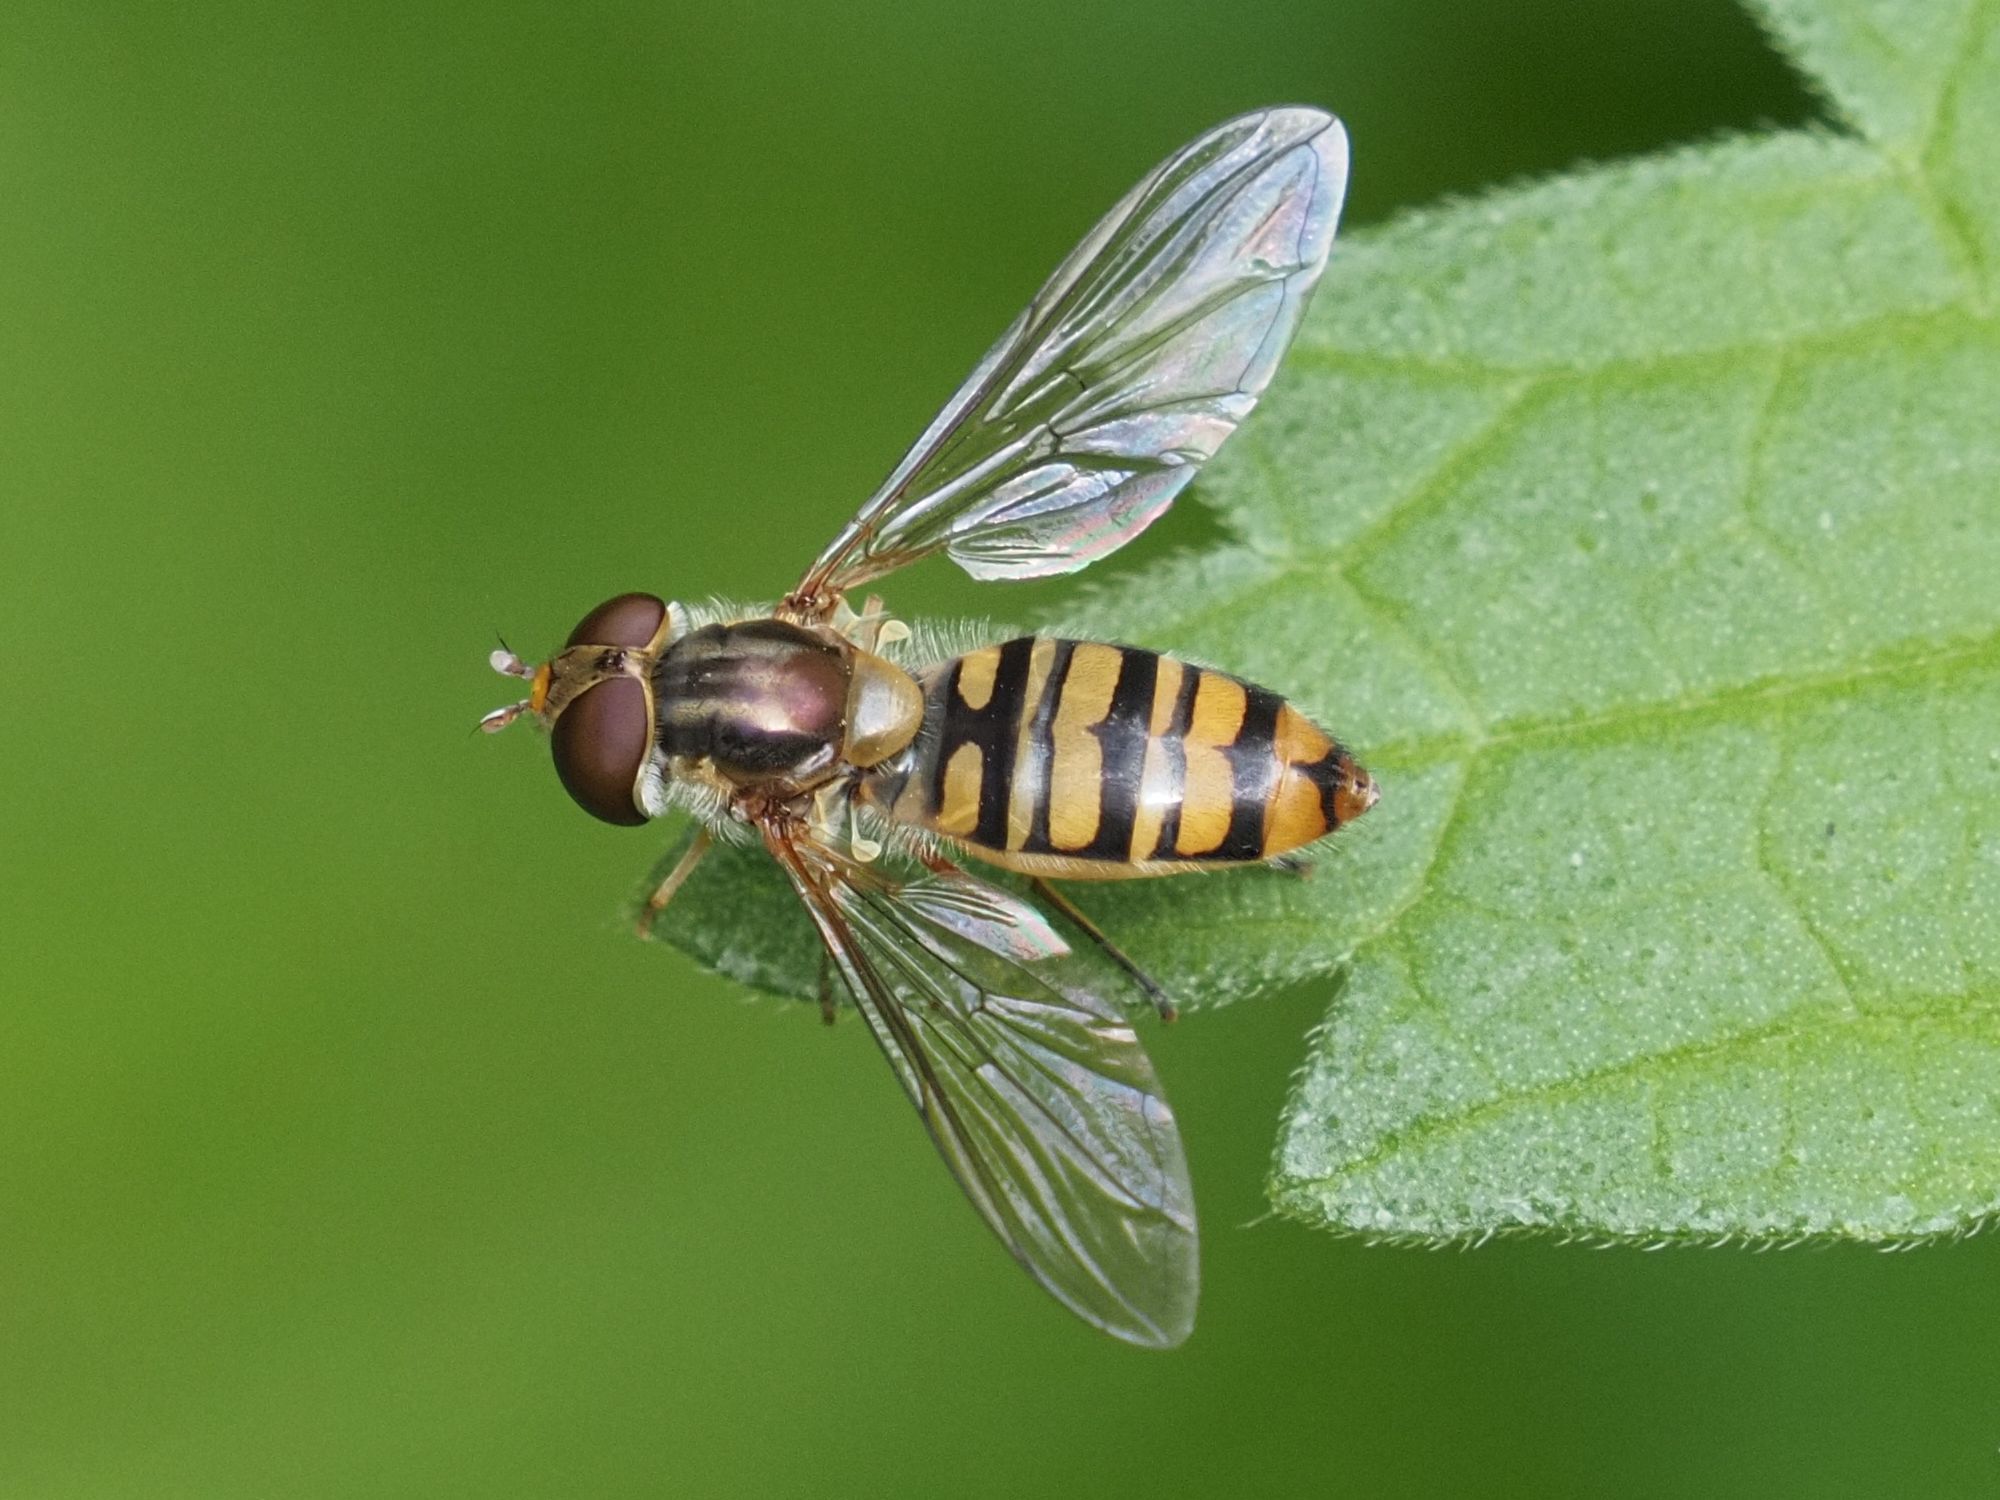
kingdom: Animalia
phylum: Arthropoda
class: Insecta
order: Diptera
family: Syrphidae
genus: Episyrphus
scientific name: Episyrphus balteatus
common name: Marmalade hoverfly
